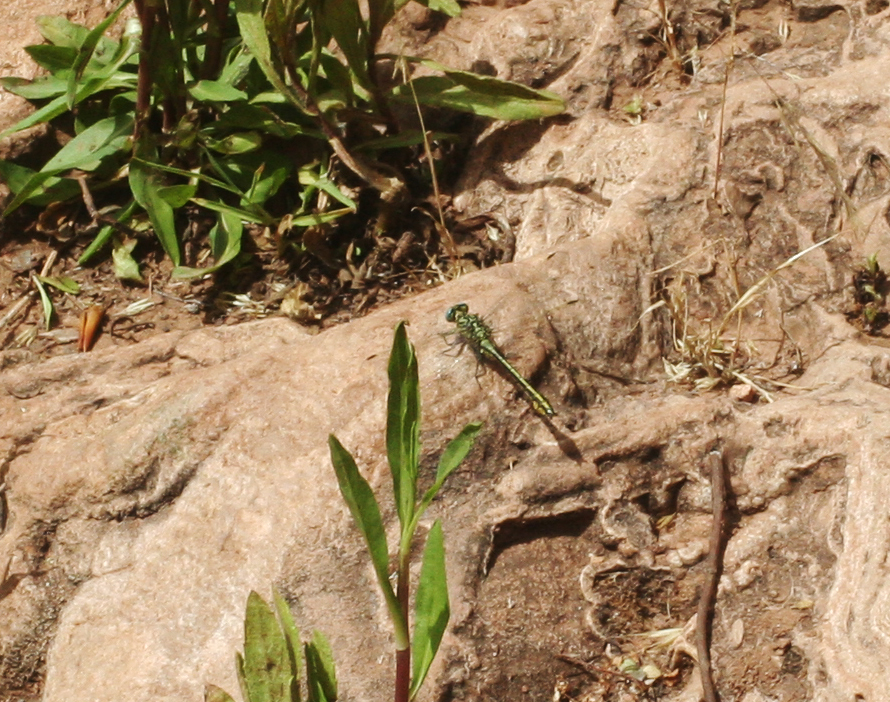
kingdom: Animalia
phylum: Arthropoda
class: Insecta
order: Odonata
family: Gomphidae
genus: Gomphus
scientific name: Gomphus simillimus
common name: Yellow clubtail
